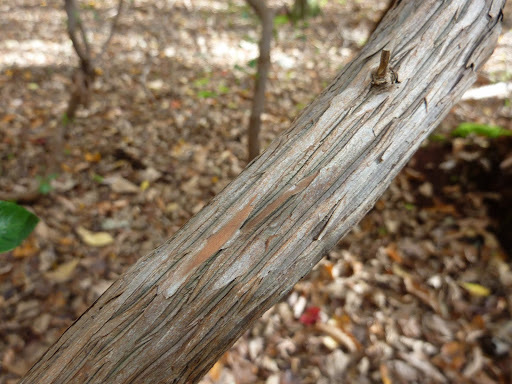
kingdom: Plantae
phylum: Tracheophyta
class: Magnoliopsida
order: Ericales
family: Ericaceae
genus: Kalmia
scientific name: Kalmia latifolia
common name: Mountain-laurel
